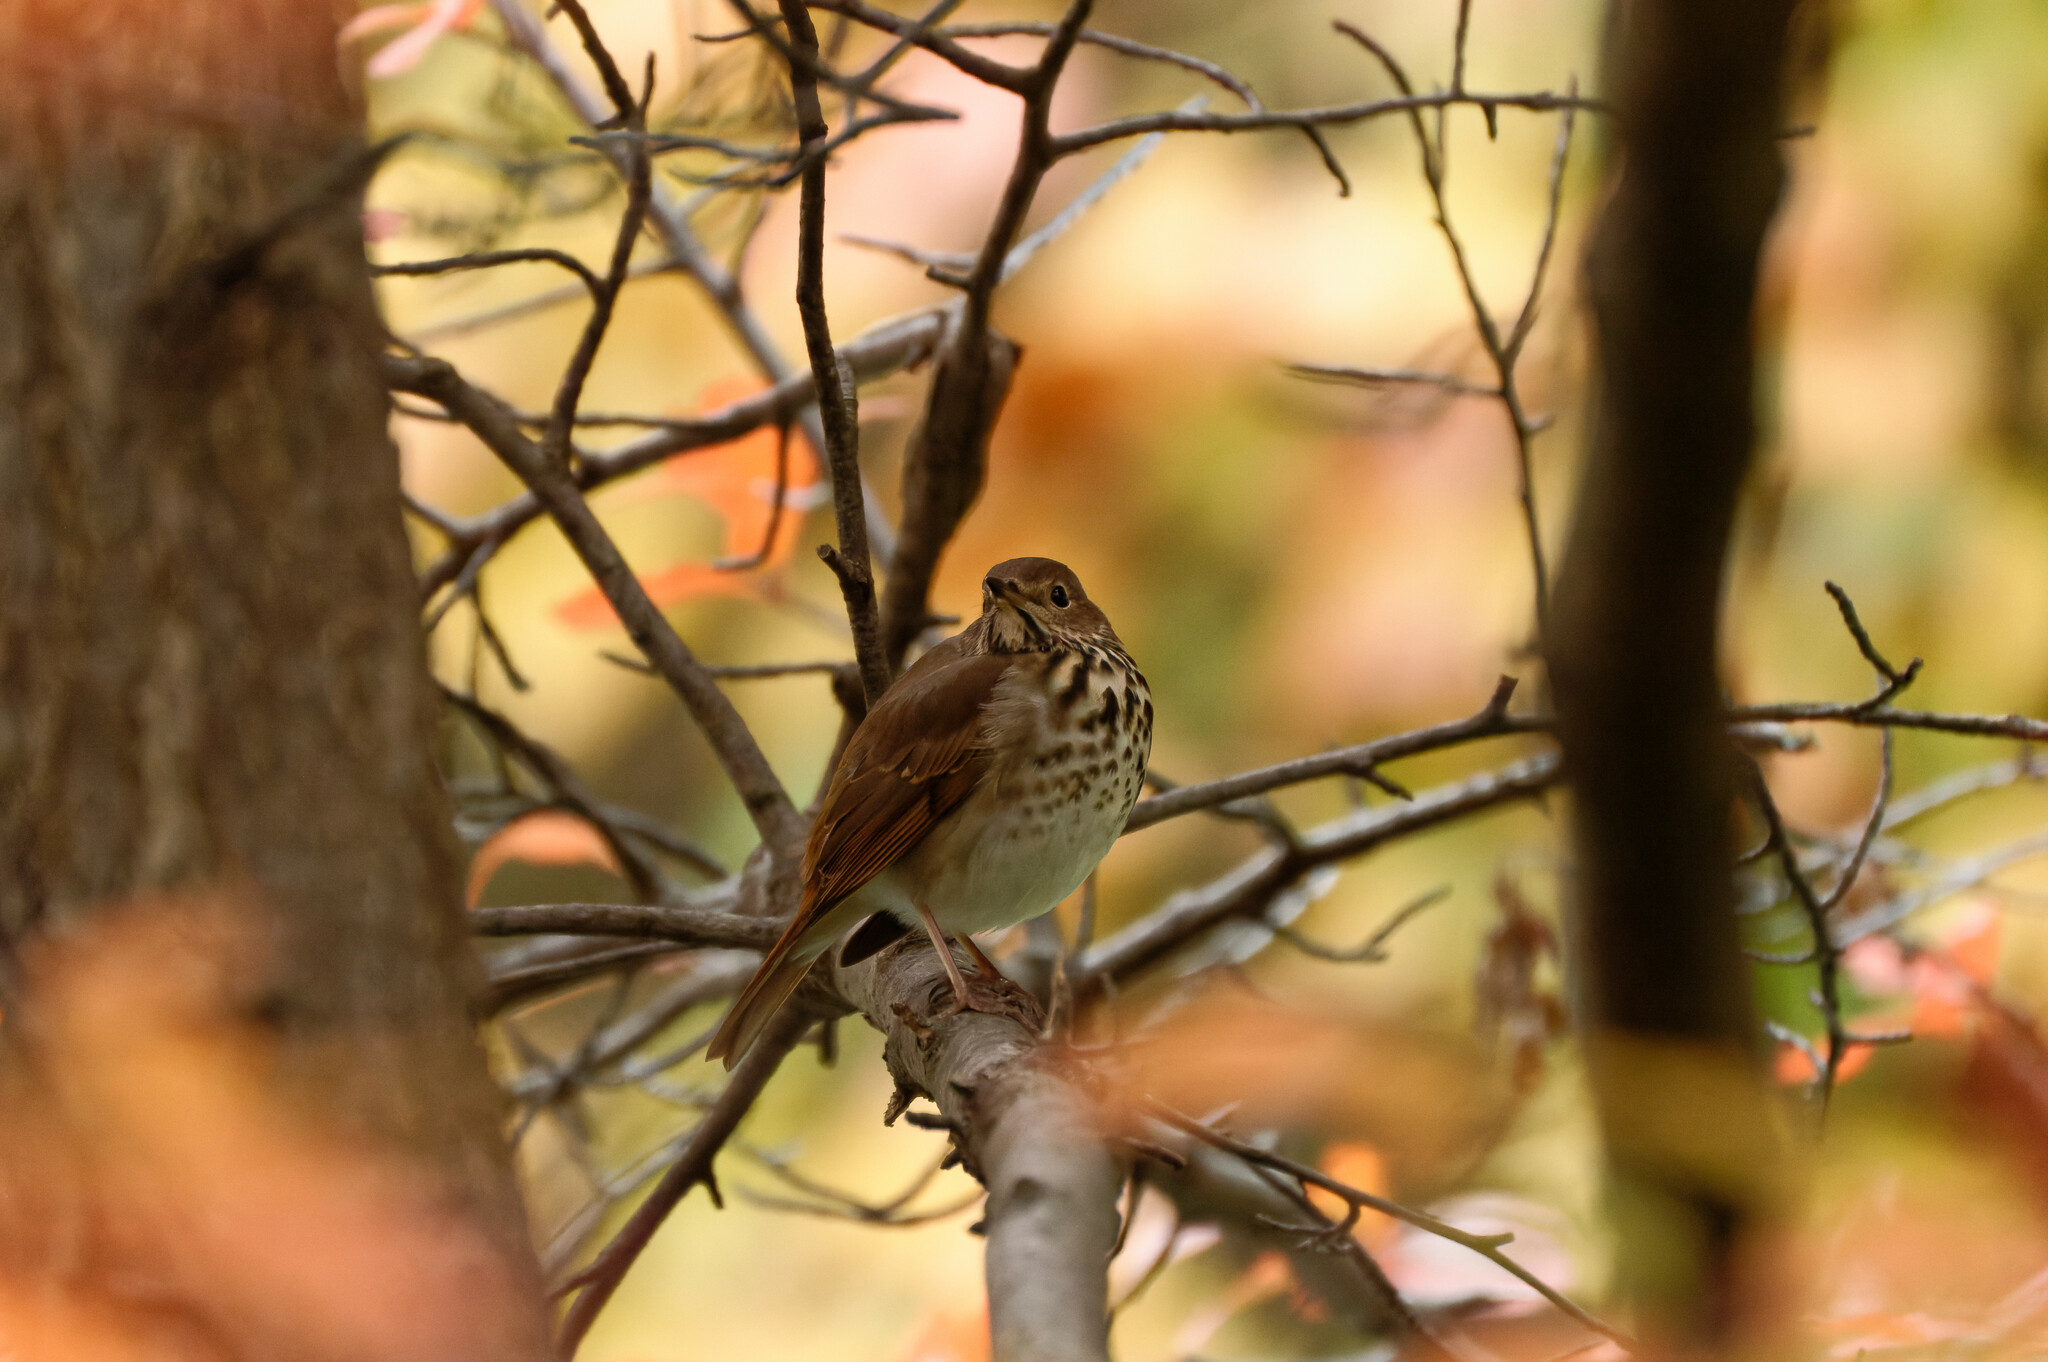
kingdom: Animalia
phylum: Chordata
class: Aves
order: Passeriformes
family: Turdidae
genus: Catharus
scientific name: Catharus guttatus
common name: Hermit thrush
